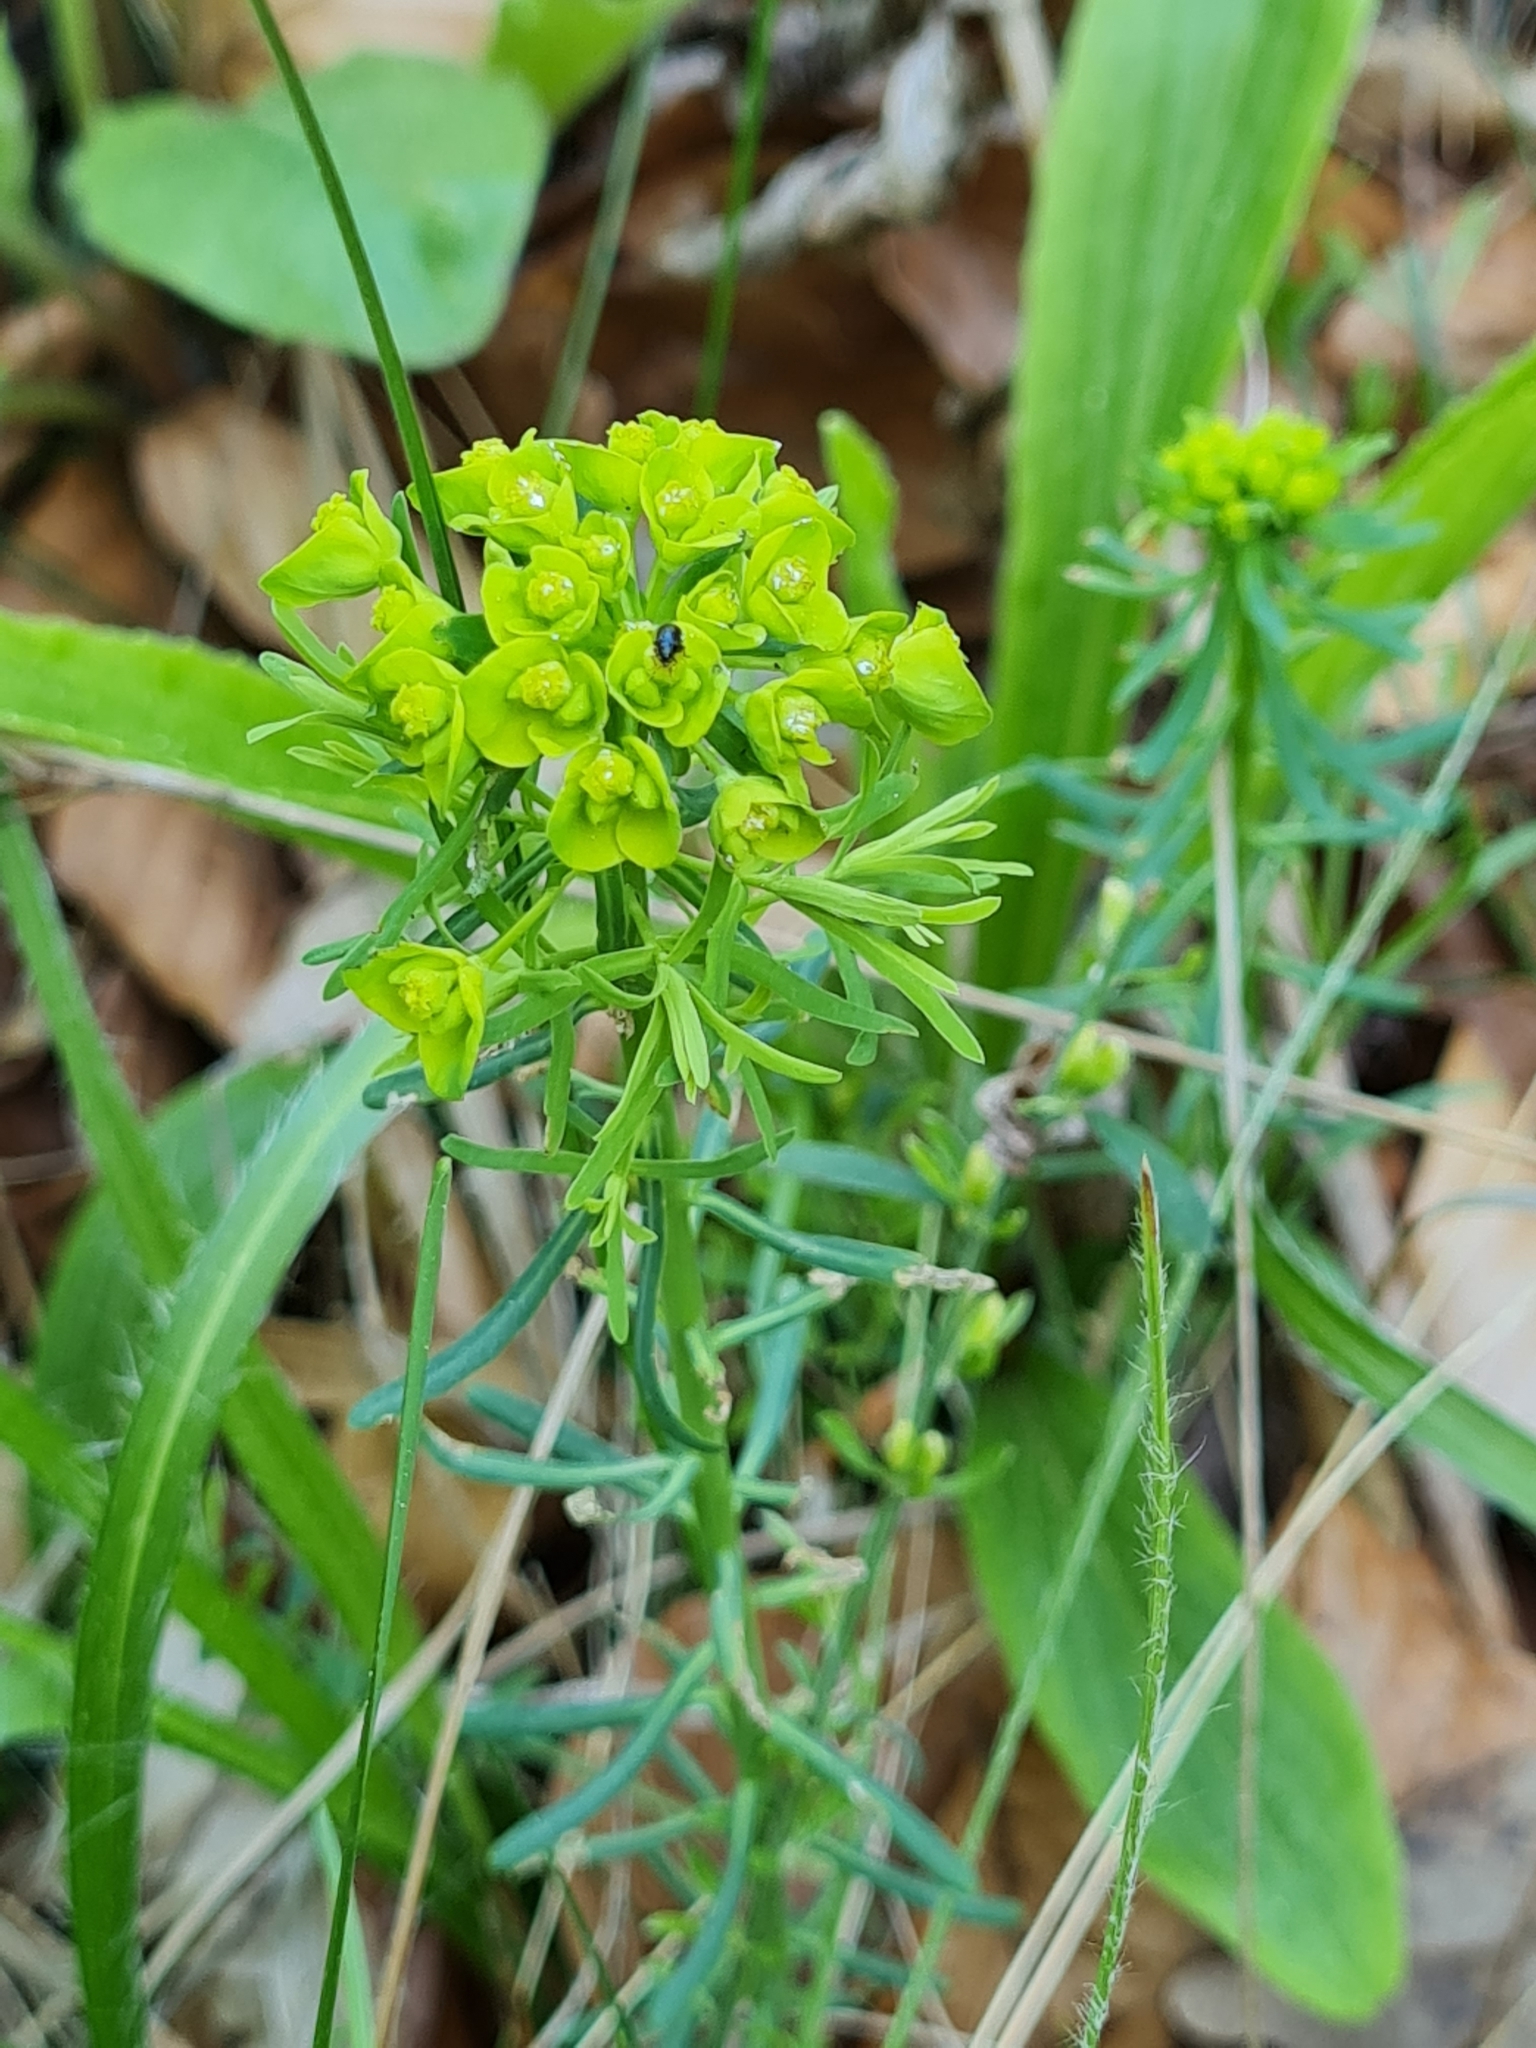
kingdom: Plantae
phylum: Tracheophyta
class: Magnoliopsida
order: Malpighiales
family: Euphorbiaceae
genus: Euphorbia
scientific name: Euphorbia cyparissias
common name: Cypress spurge
